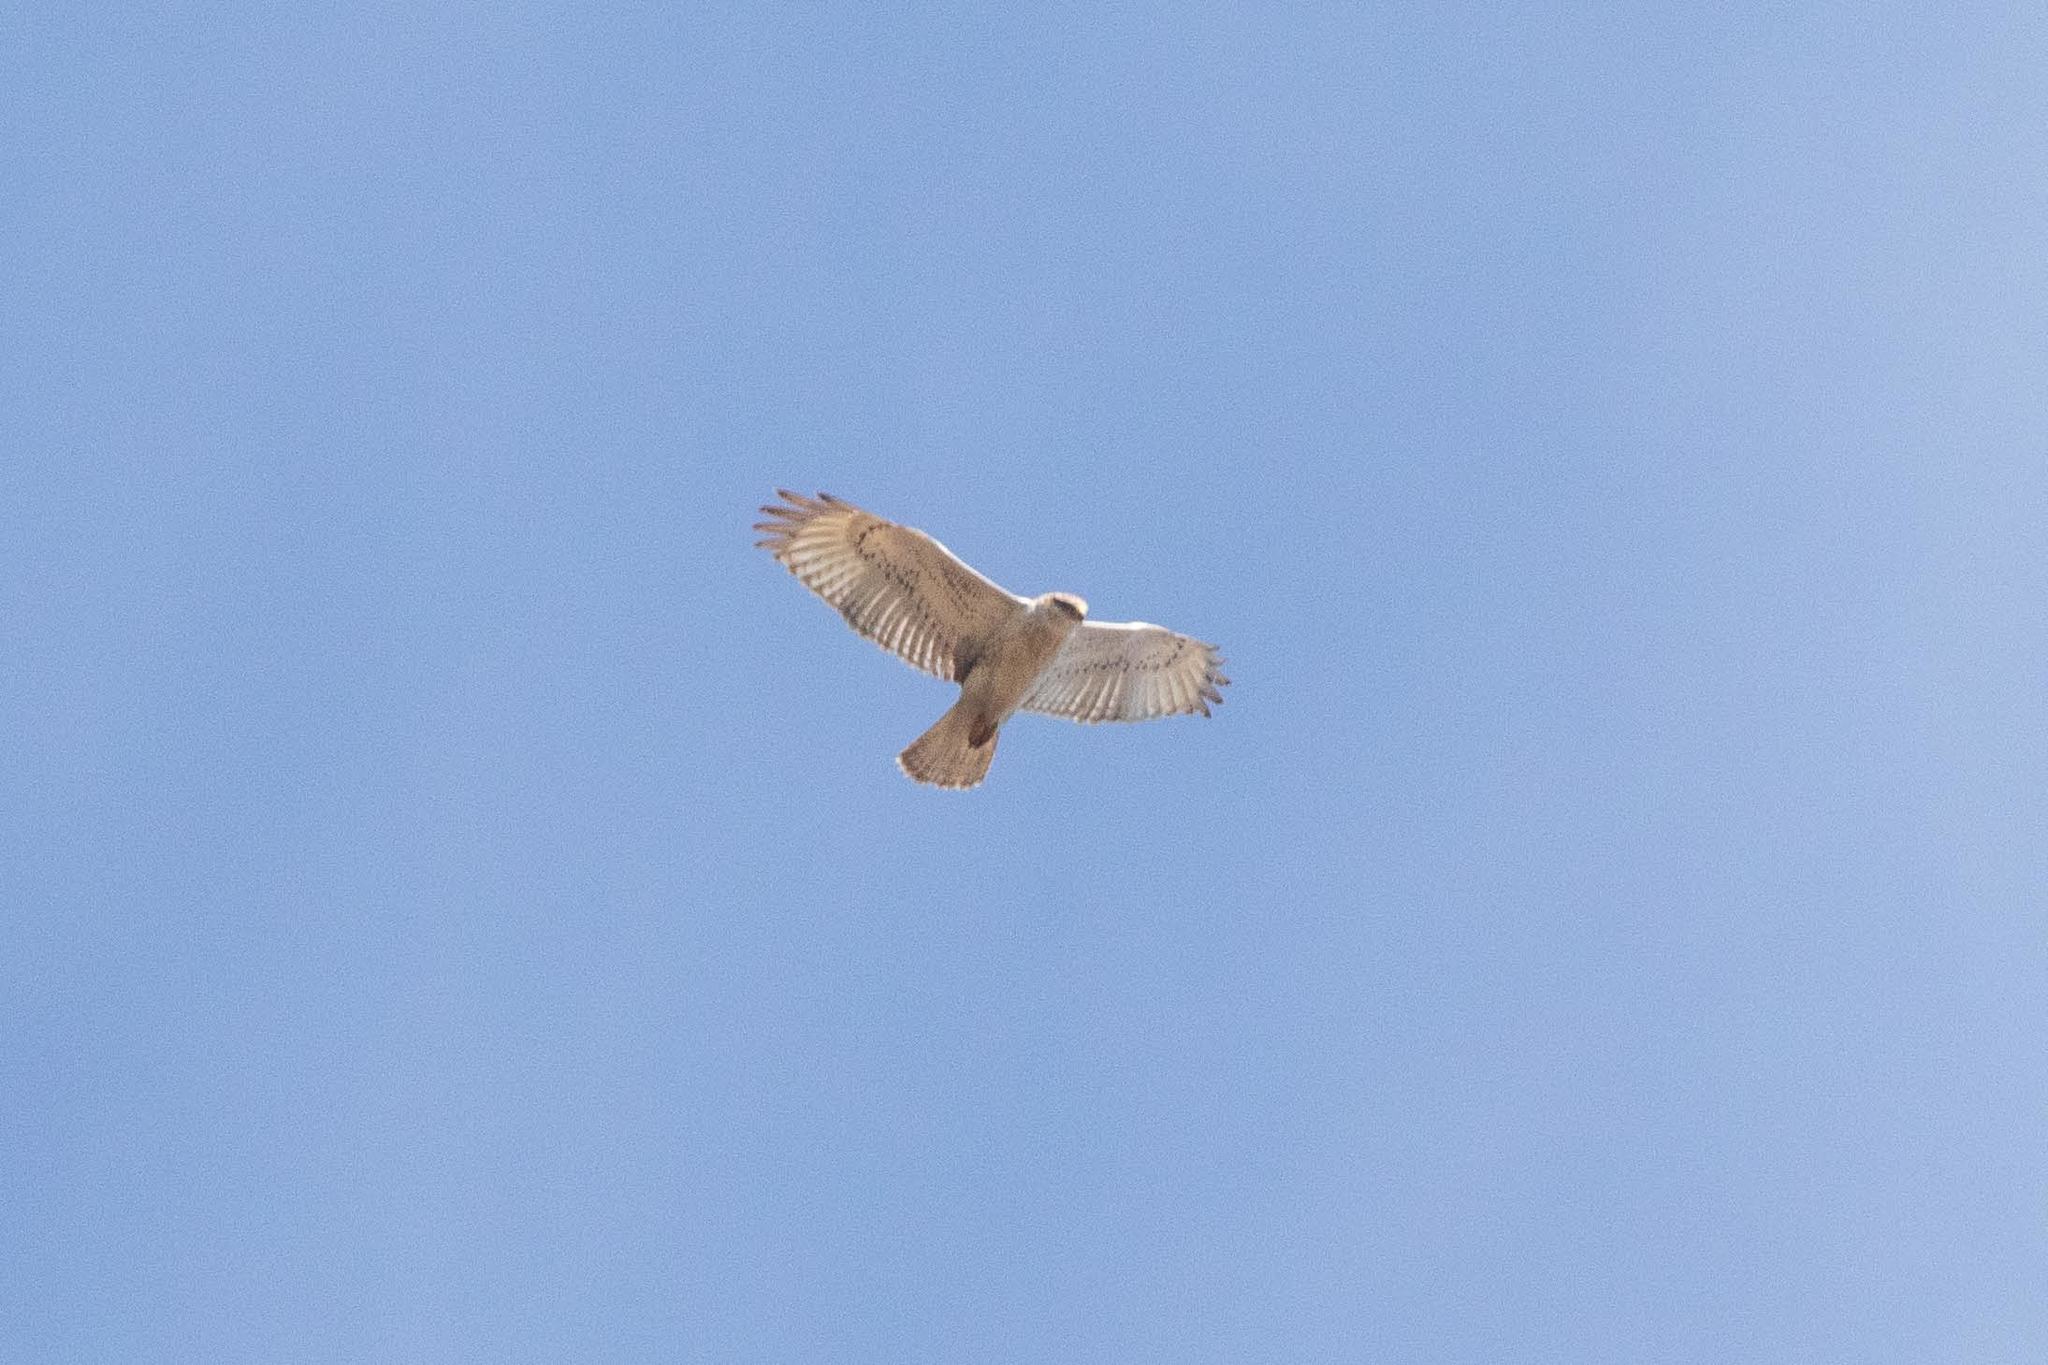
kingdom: Animalia
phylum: Chordata
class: Aves
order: Accipitriformes
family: Accipitridae
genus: Buteo
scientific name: Buteo regalis
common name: Ferruginous hawk
